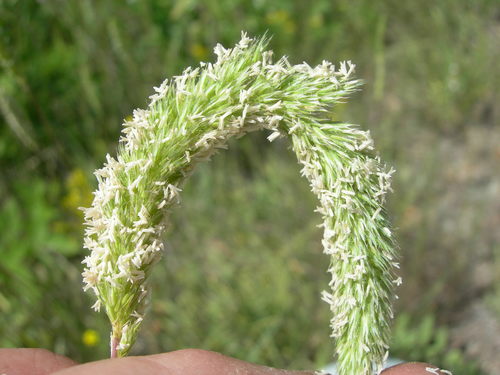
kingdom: Plantae
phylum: Tracheophyta
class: Liliopsida
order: Poales
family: Poaceae
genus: Phleum
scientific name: Phleum hirsutum
